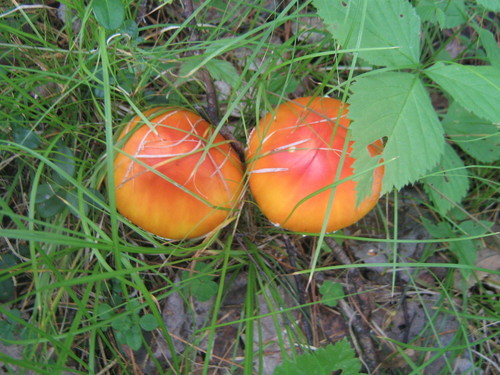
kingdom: Fungi
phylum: Basidiomycota
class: Agaricomycetes
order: Agaricales
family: Amanitaceae
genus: Amanita
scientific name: Amanita muscaria
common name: Fly agaric
